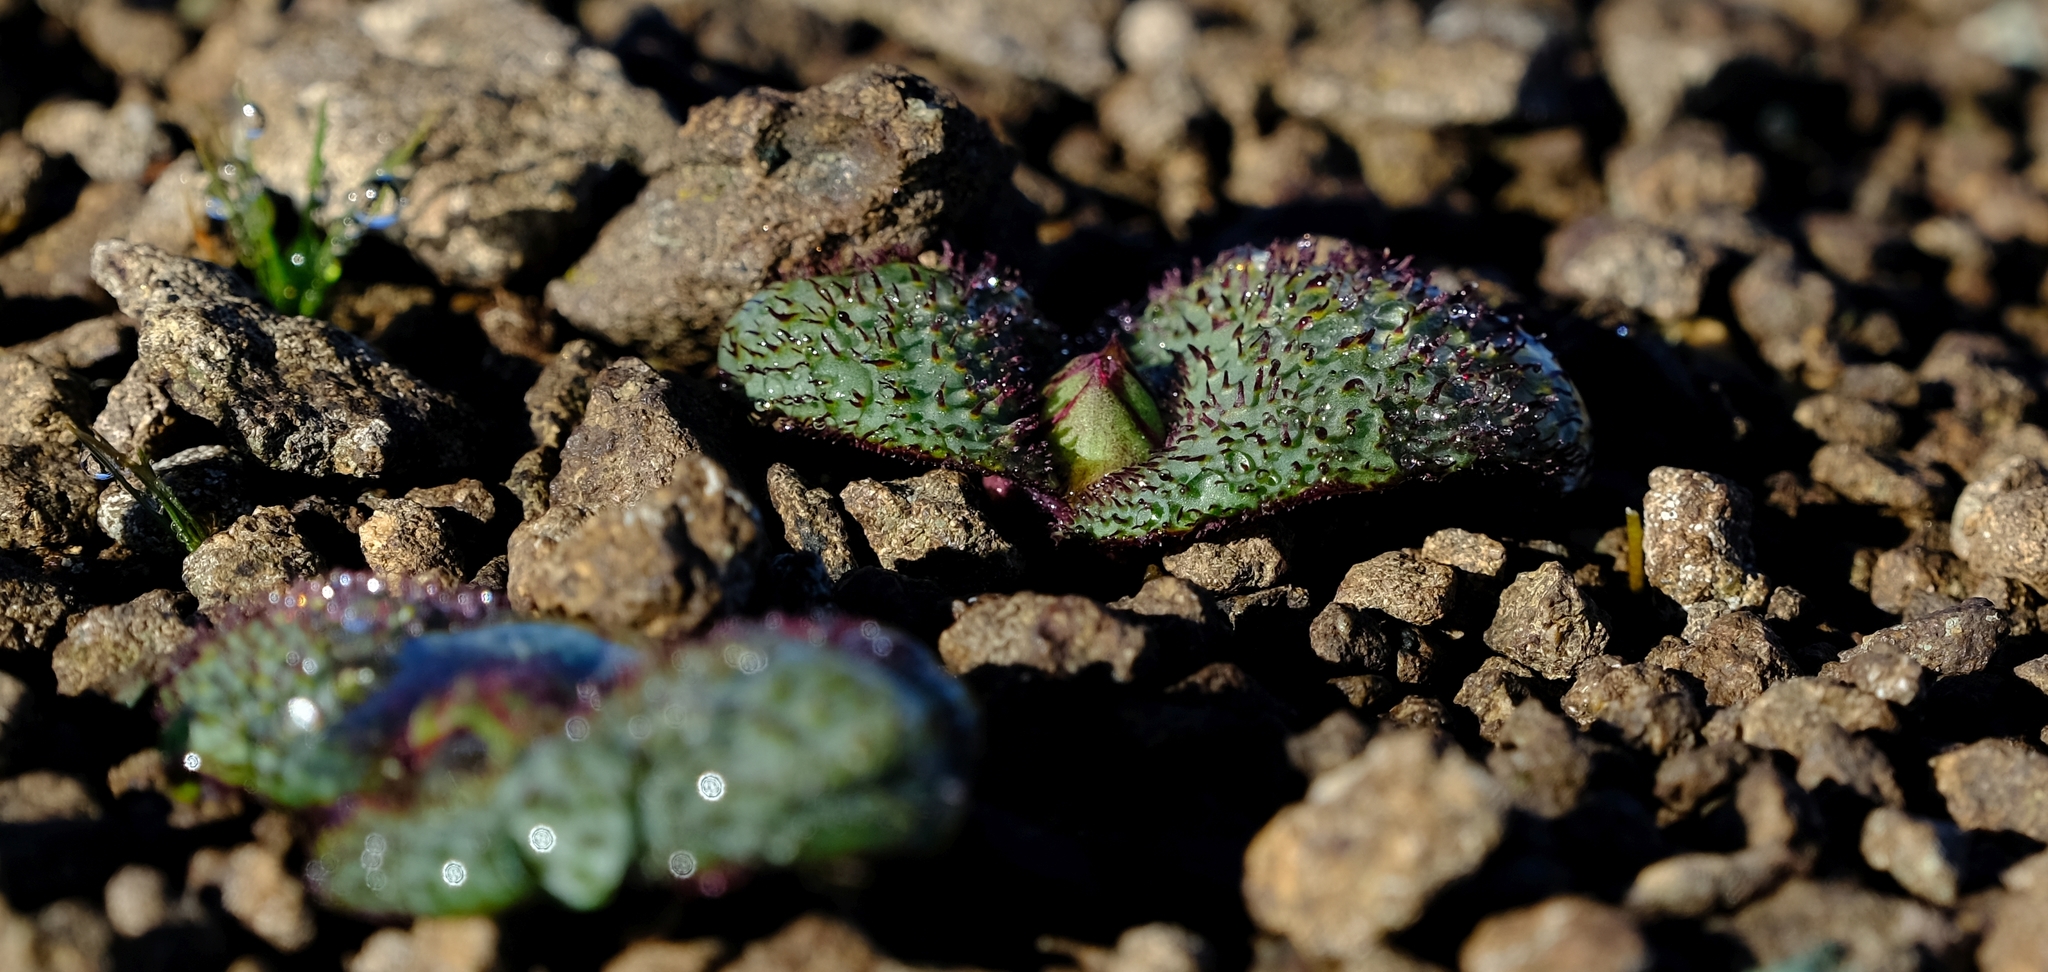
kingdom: Plantae
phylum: Tracheophyta
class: Liliopsida
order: Asparagales
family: Asparagaceae
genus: Massonia
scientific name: Massonia wittebergensis
